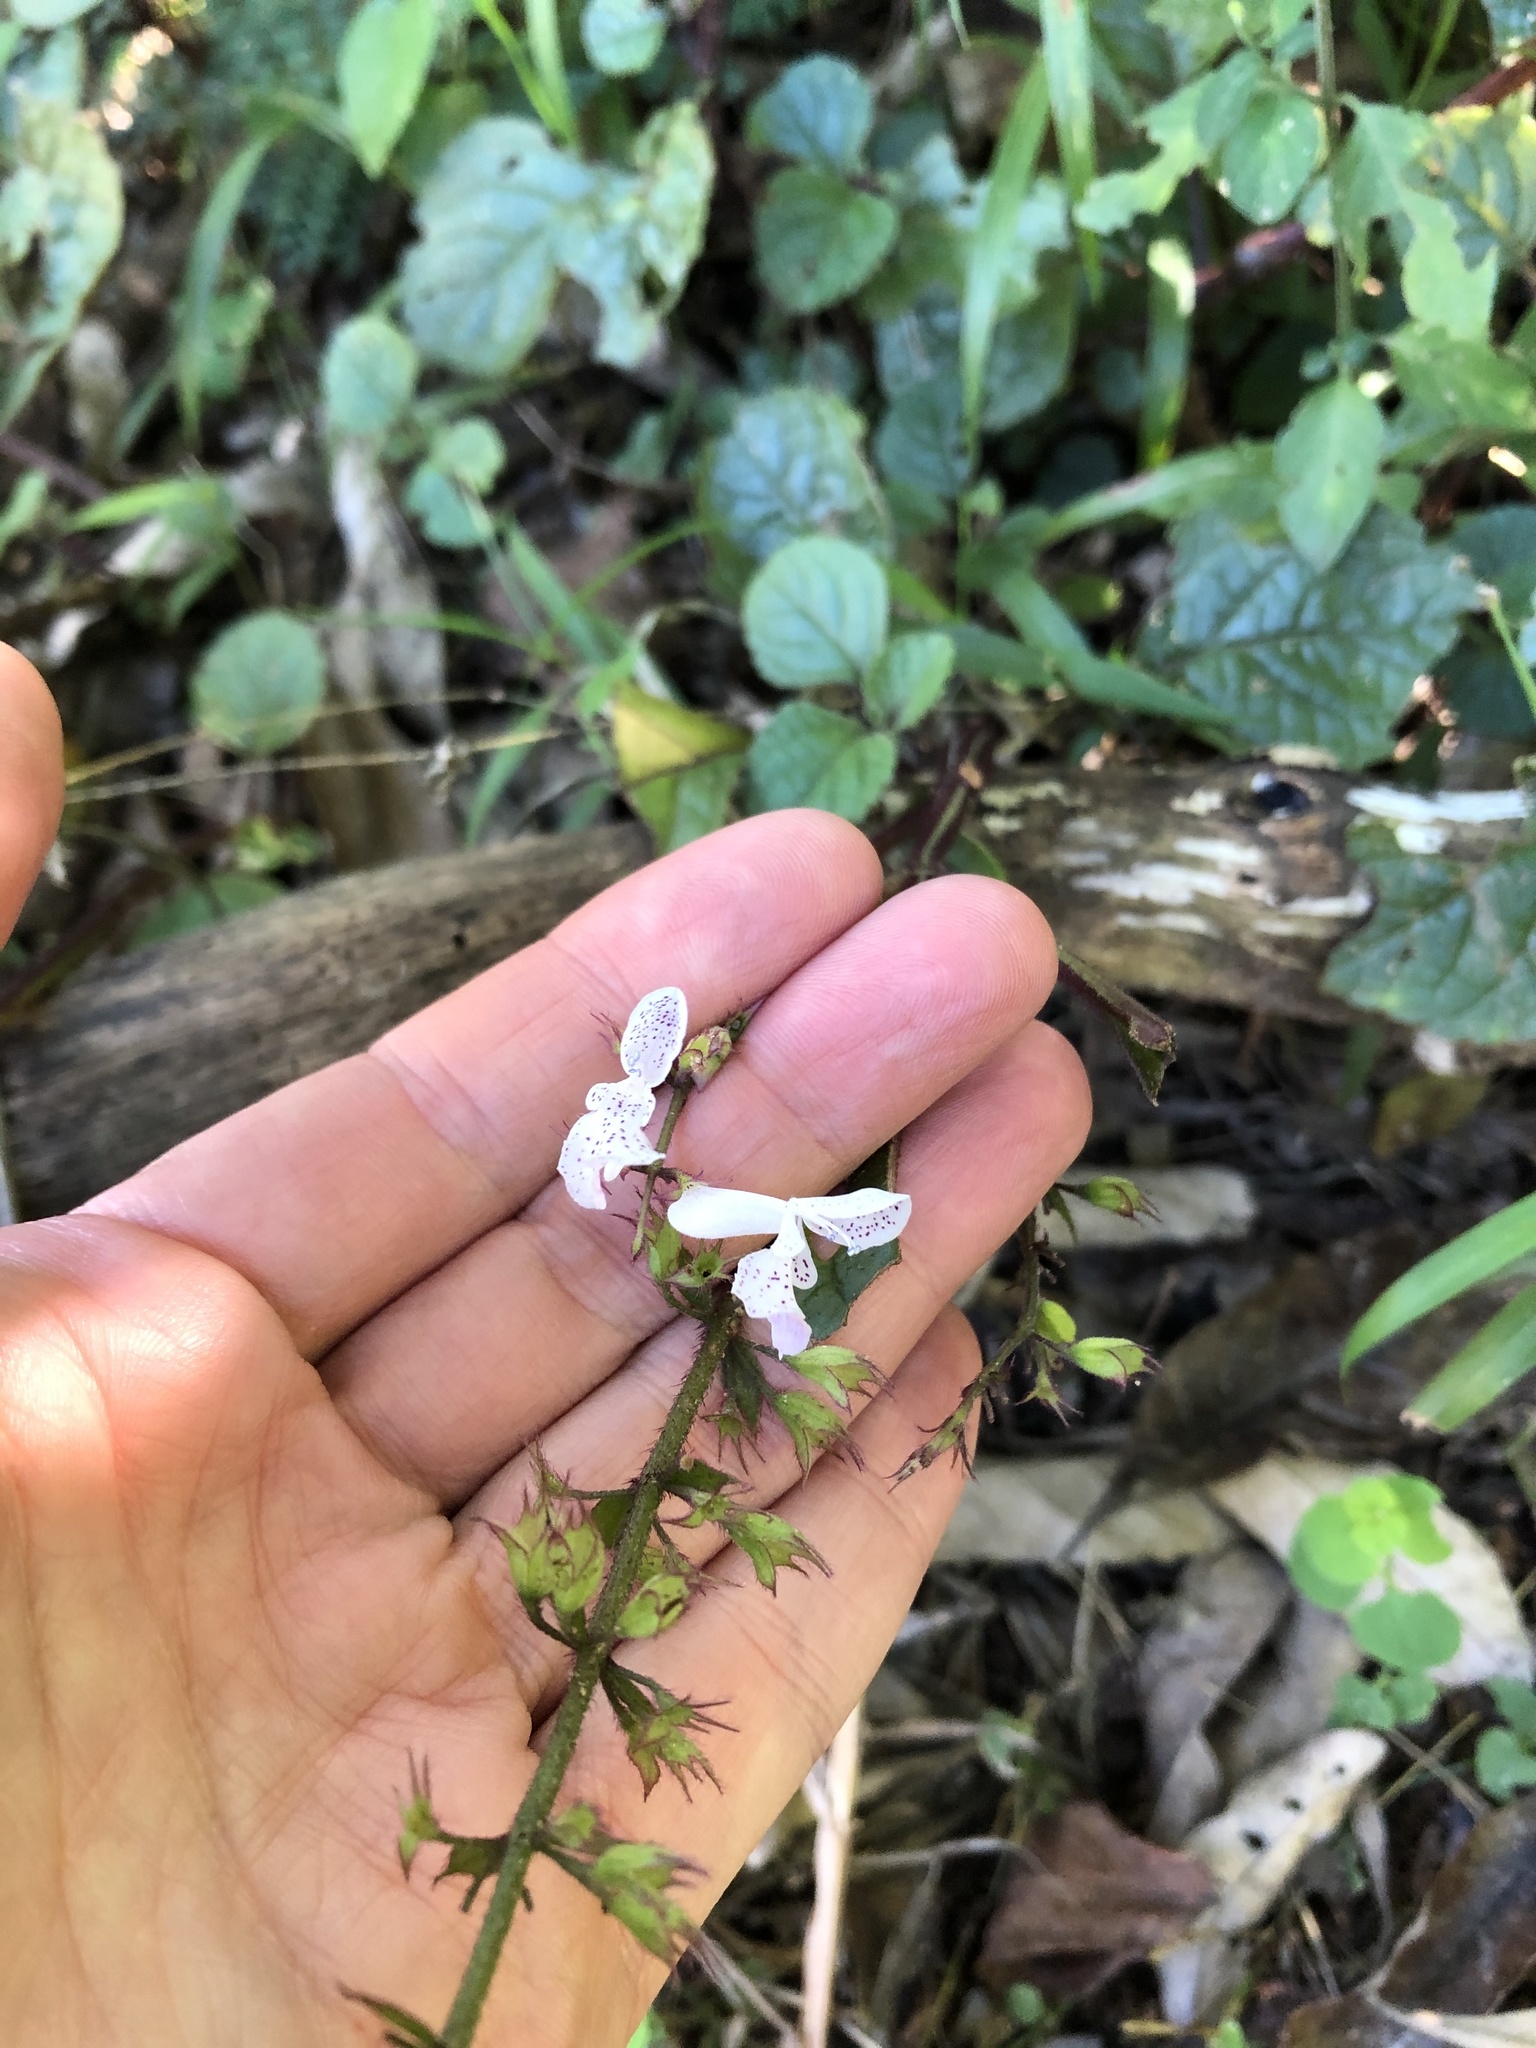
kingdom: Plantae
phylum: Tracheophyta
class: Magnoliopsida
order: Lamiales
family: Lamiaceae
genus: Plectranthus
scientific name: Plectranthus ciliatus
